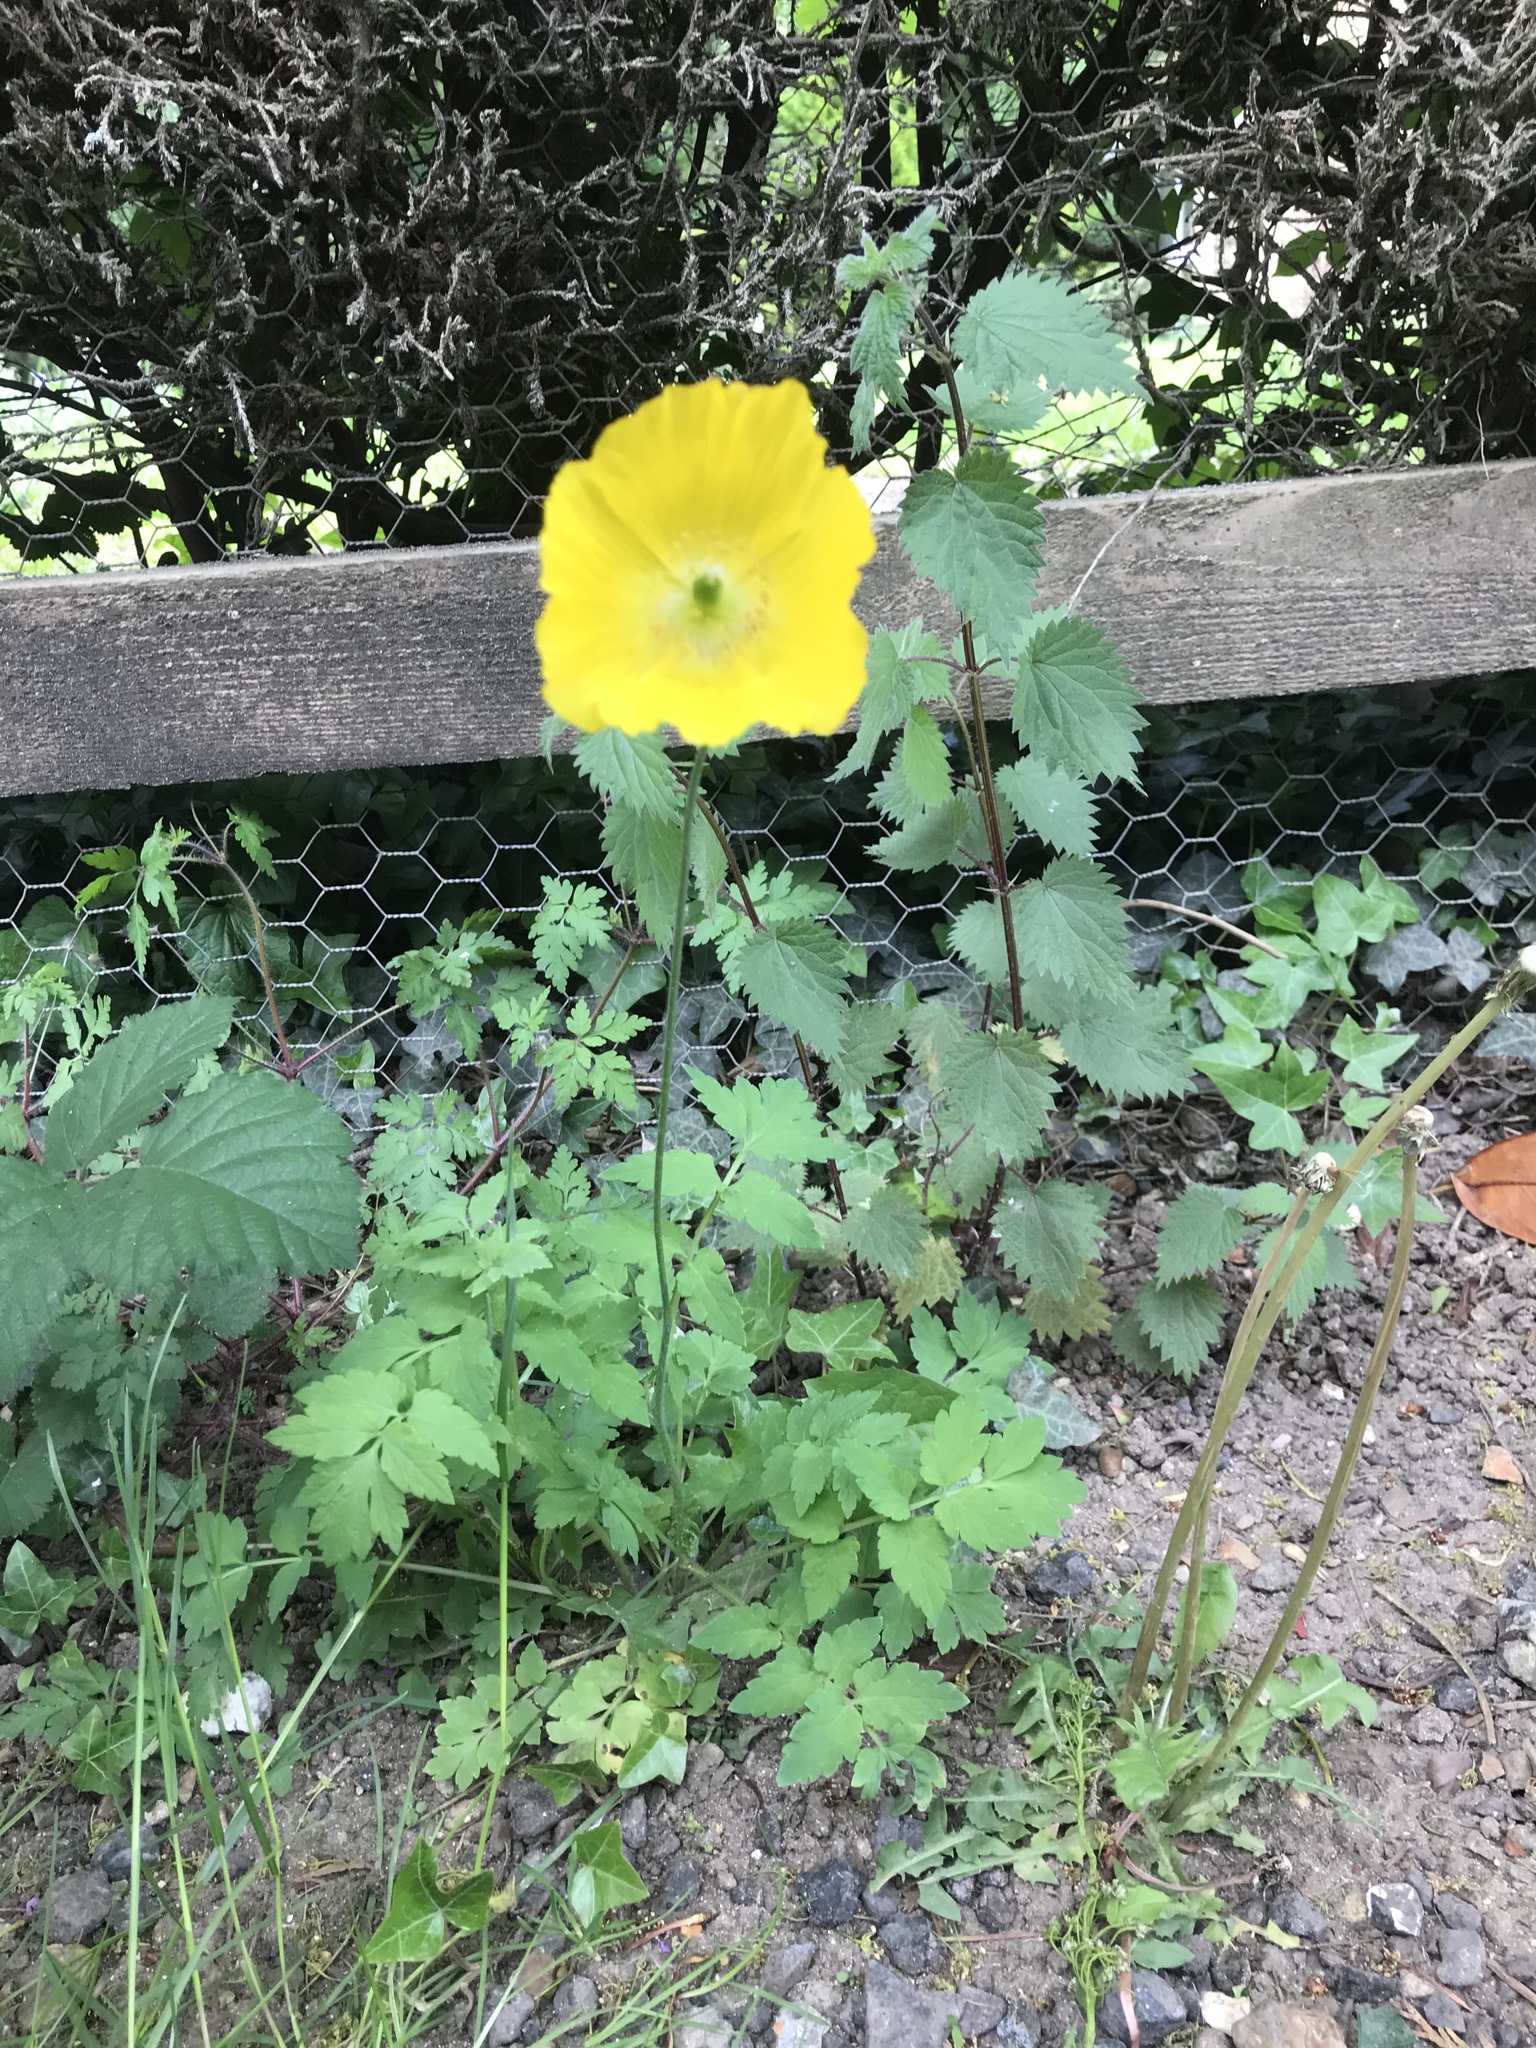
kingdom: Plantae
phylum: Tracheophyta
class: Magnoliopsida
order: Ranunculales
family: Papaveraceae
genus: Papaver
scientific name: Papaver cambricum
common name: Poppy
